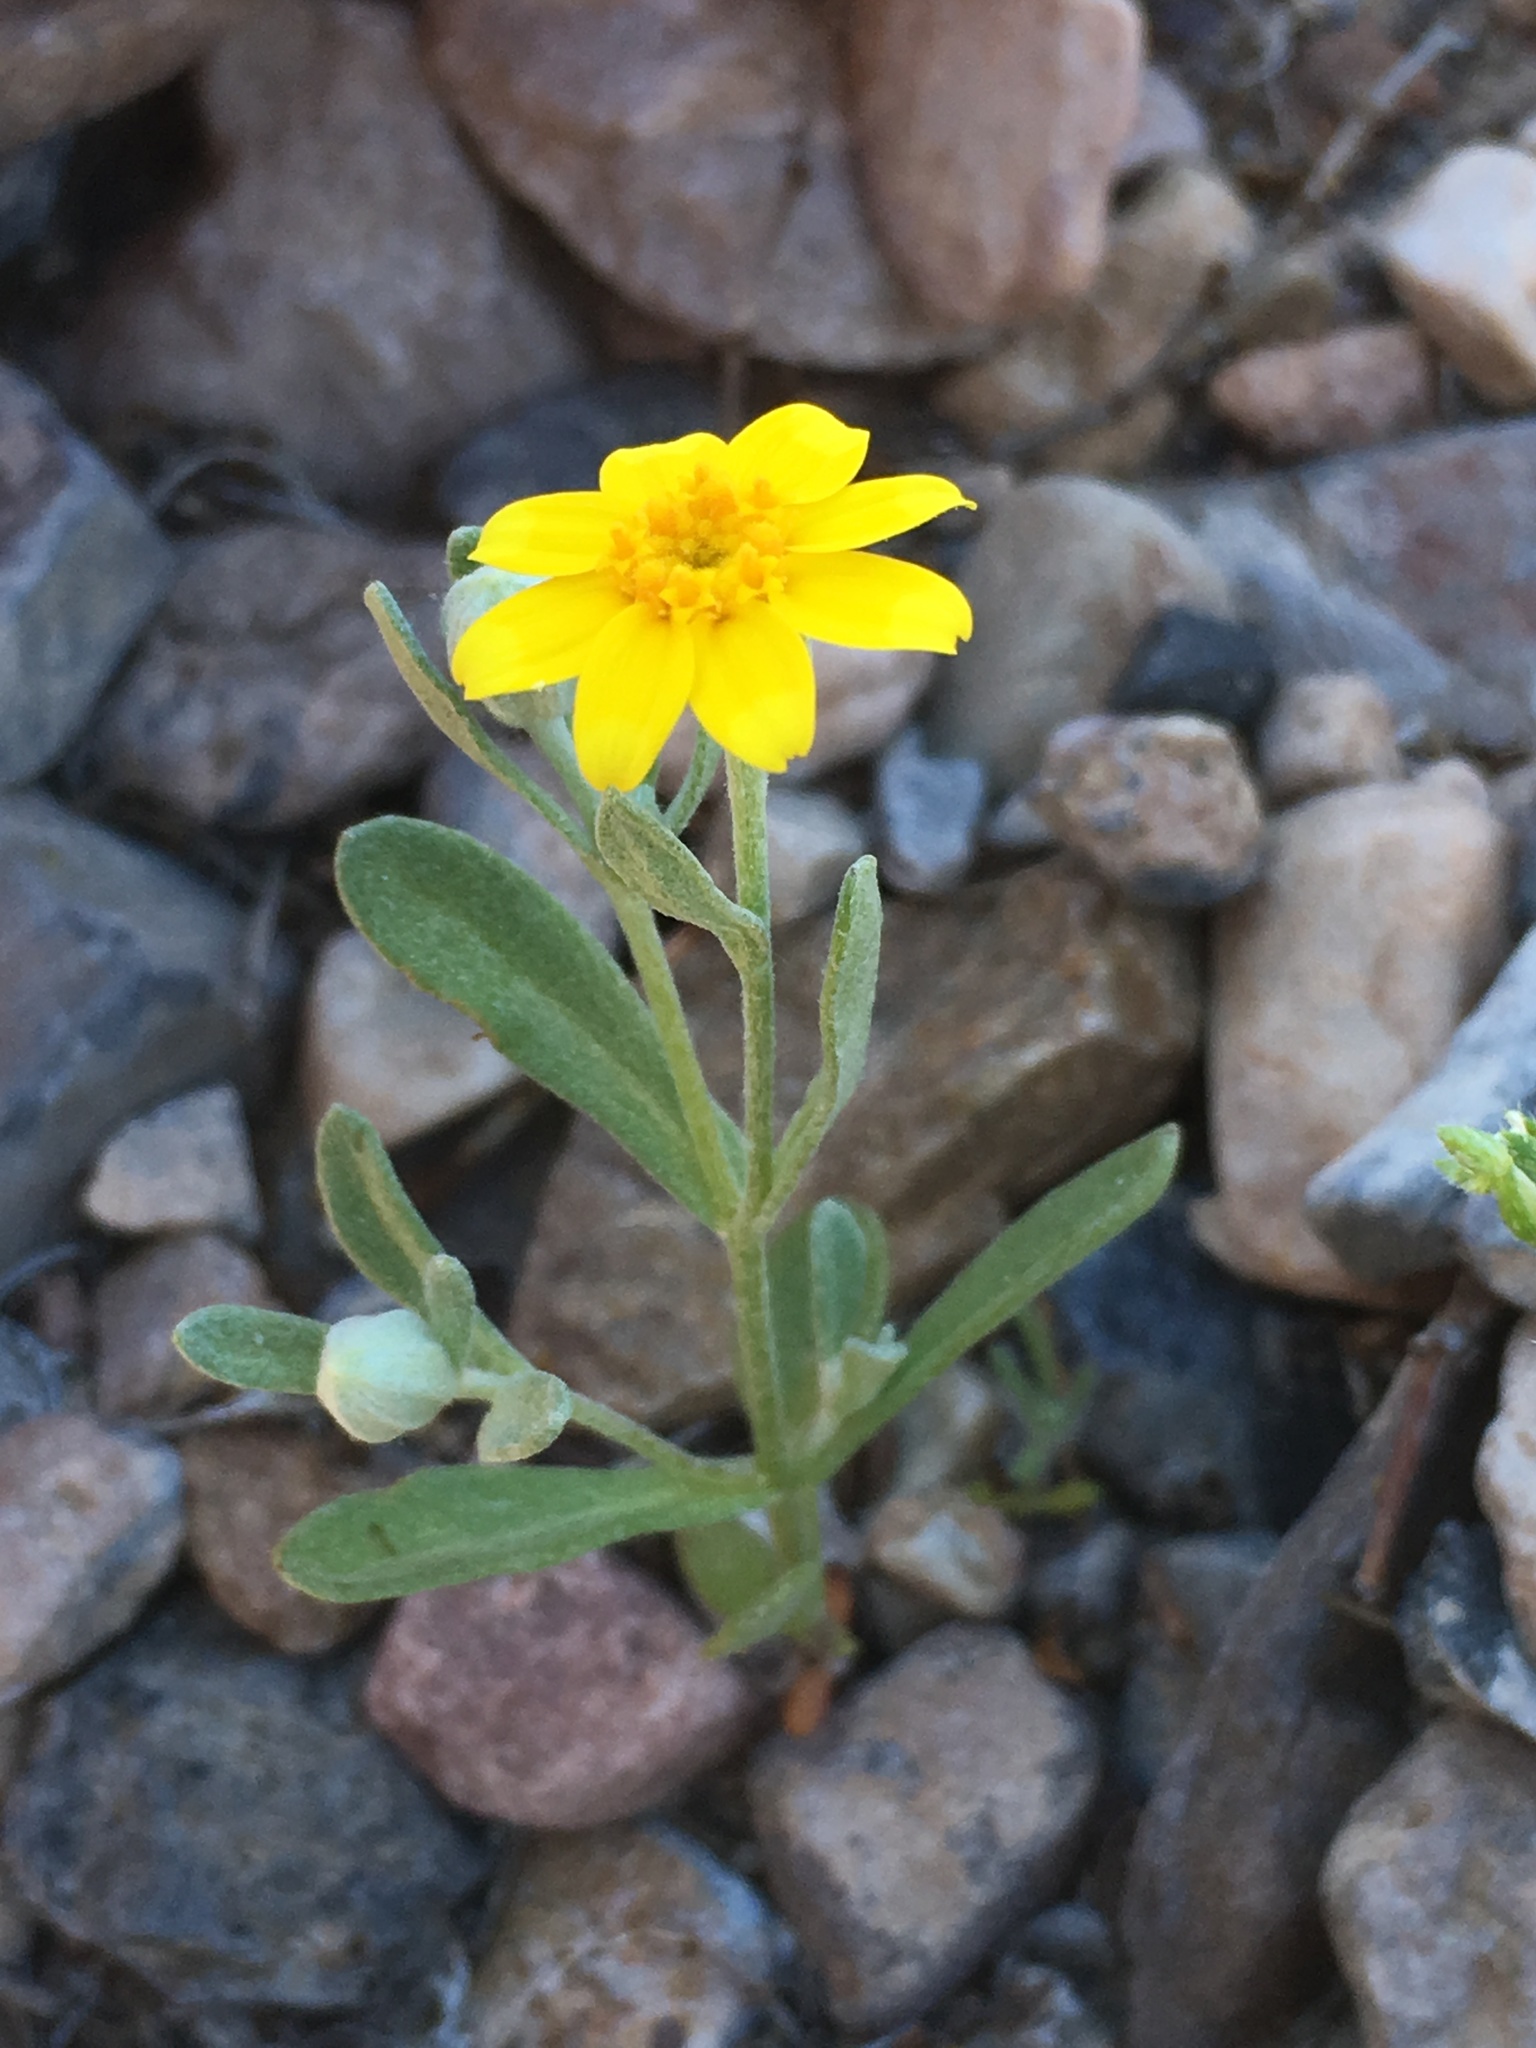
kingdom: Plantae
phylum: Tracheophyta
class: Magnoliopsida
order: Asterales
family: Asteraceae
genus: Eriophyllum
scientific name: Eriophyllum ambiguum
